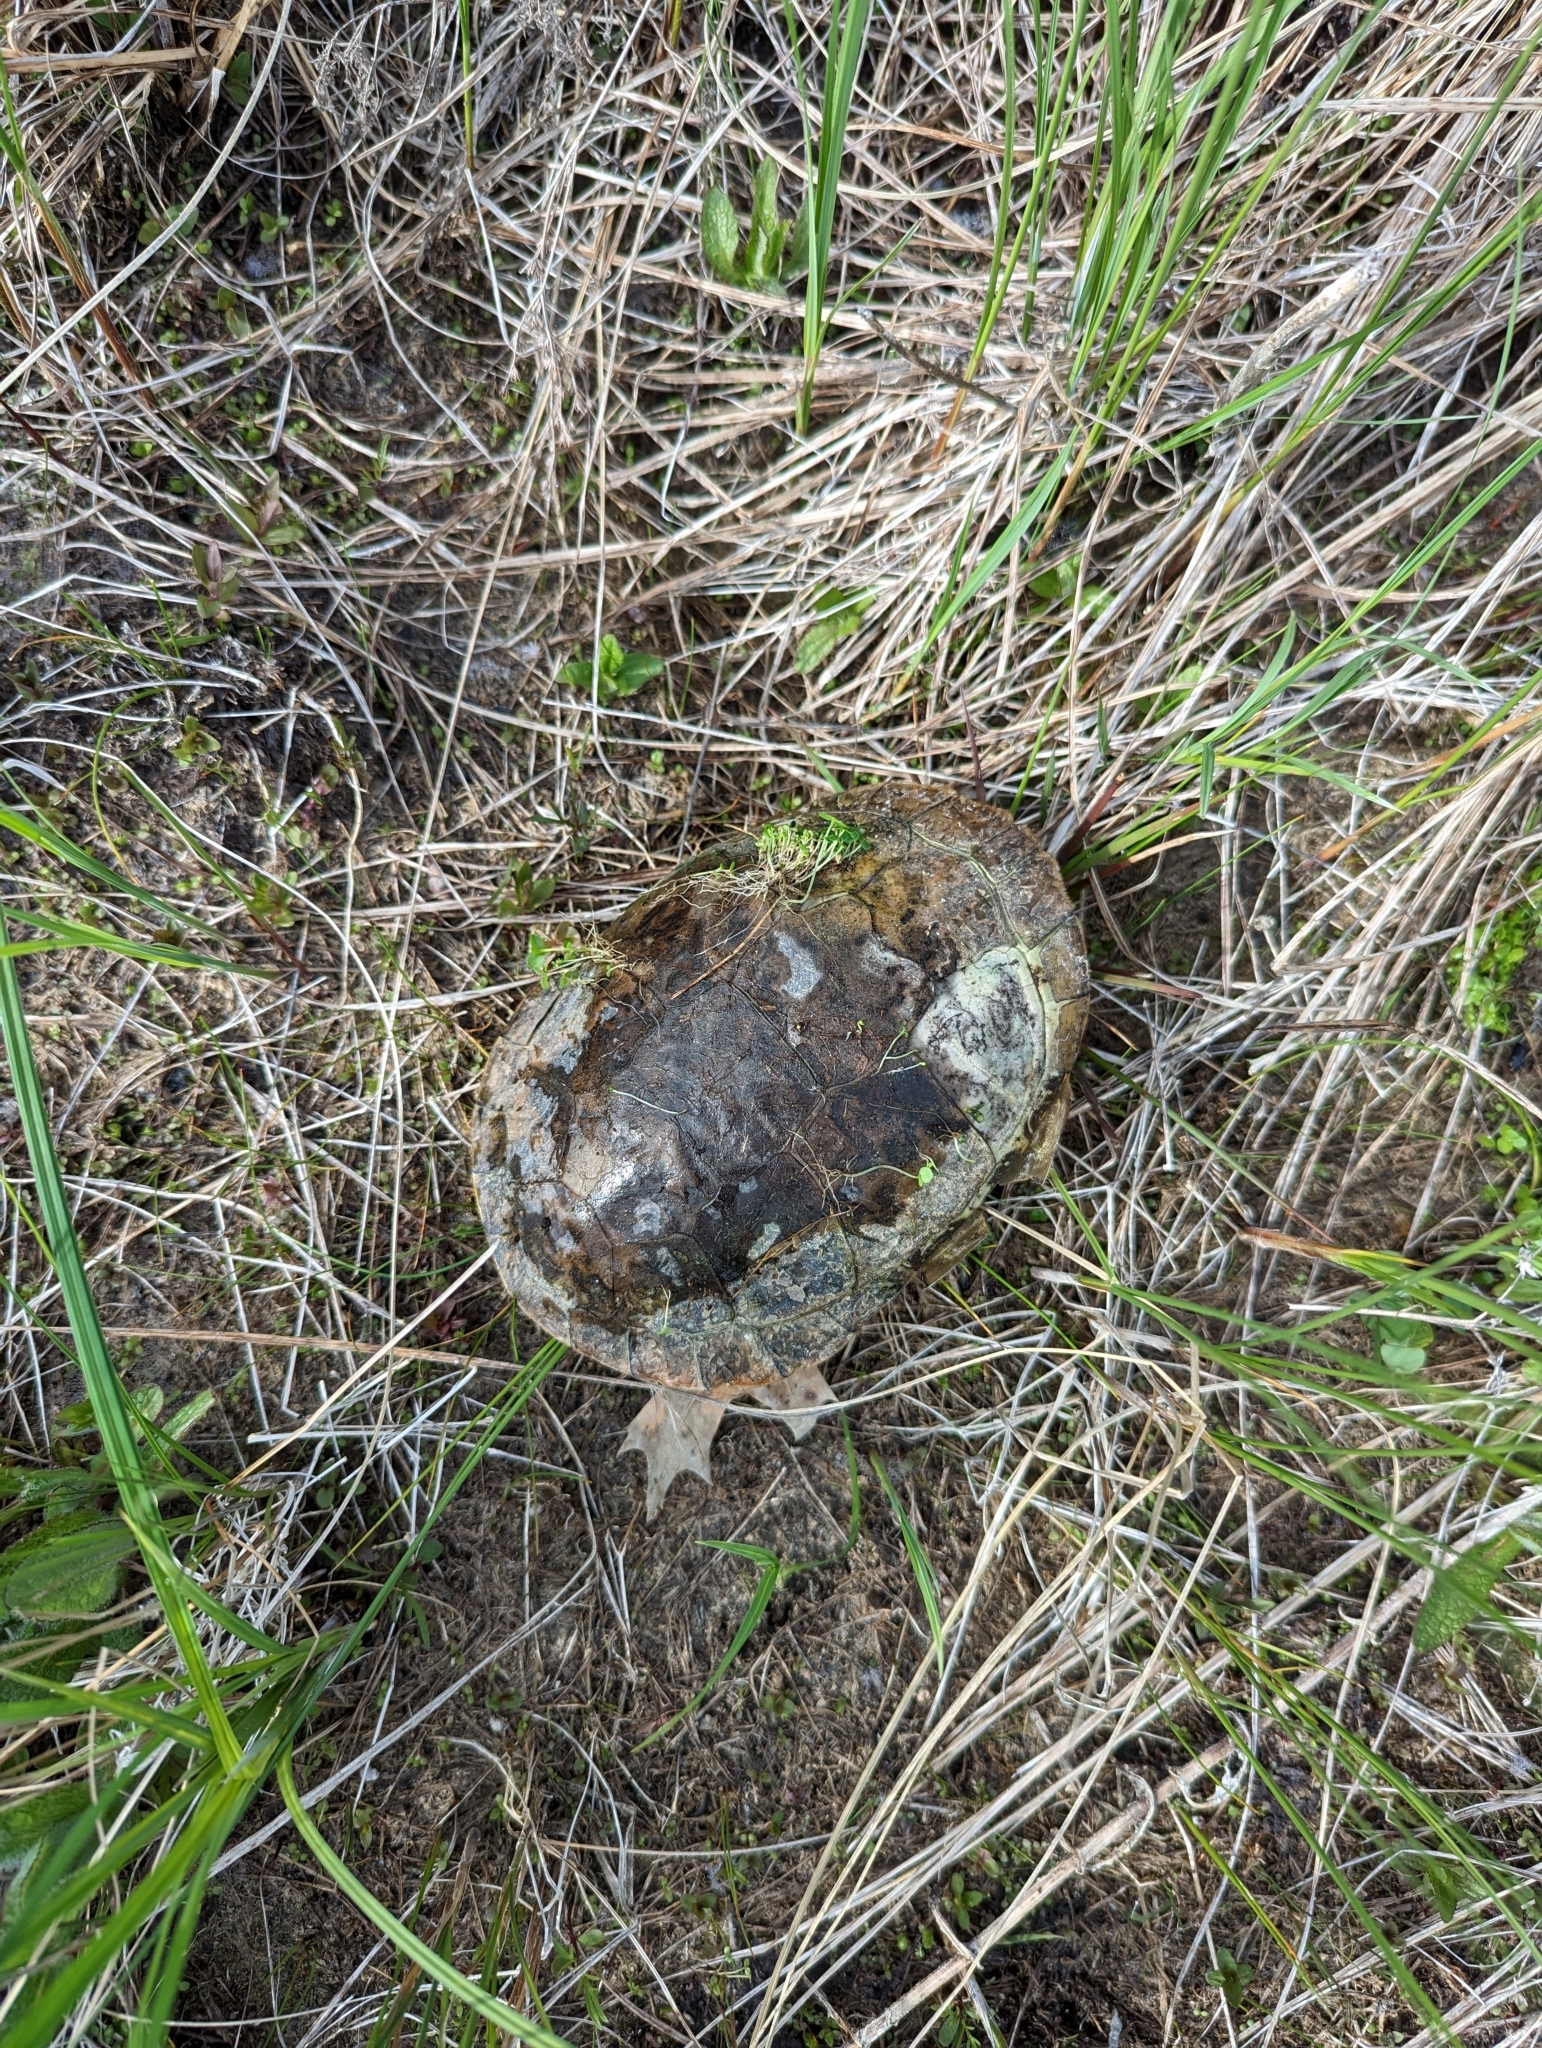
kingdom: Animalia
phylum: Chordata
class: Testudines
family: Emydidae
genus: Chrysemys
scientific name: Chrysemys picta
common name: Painted turtle
